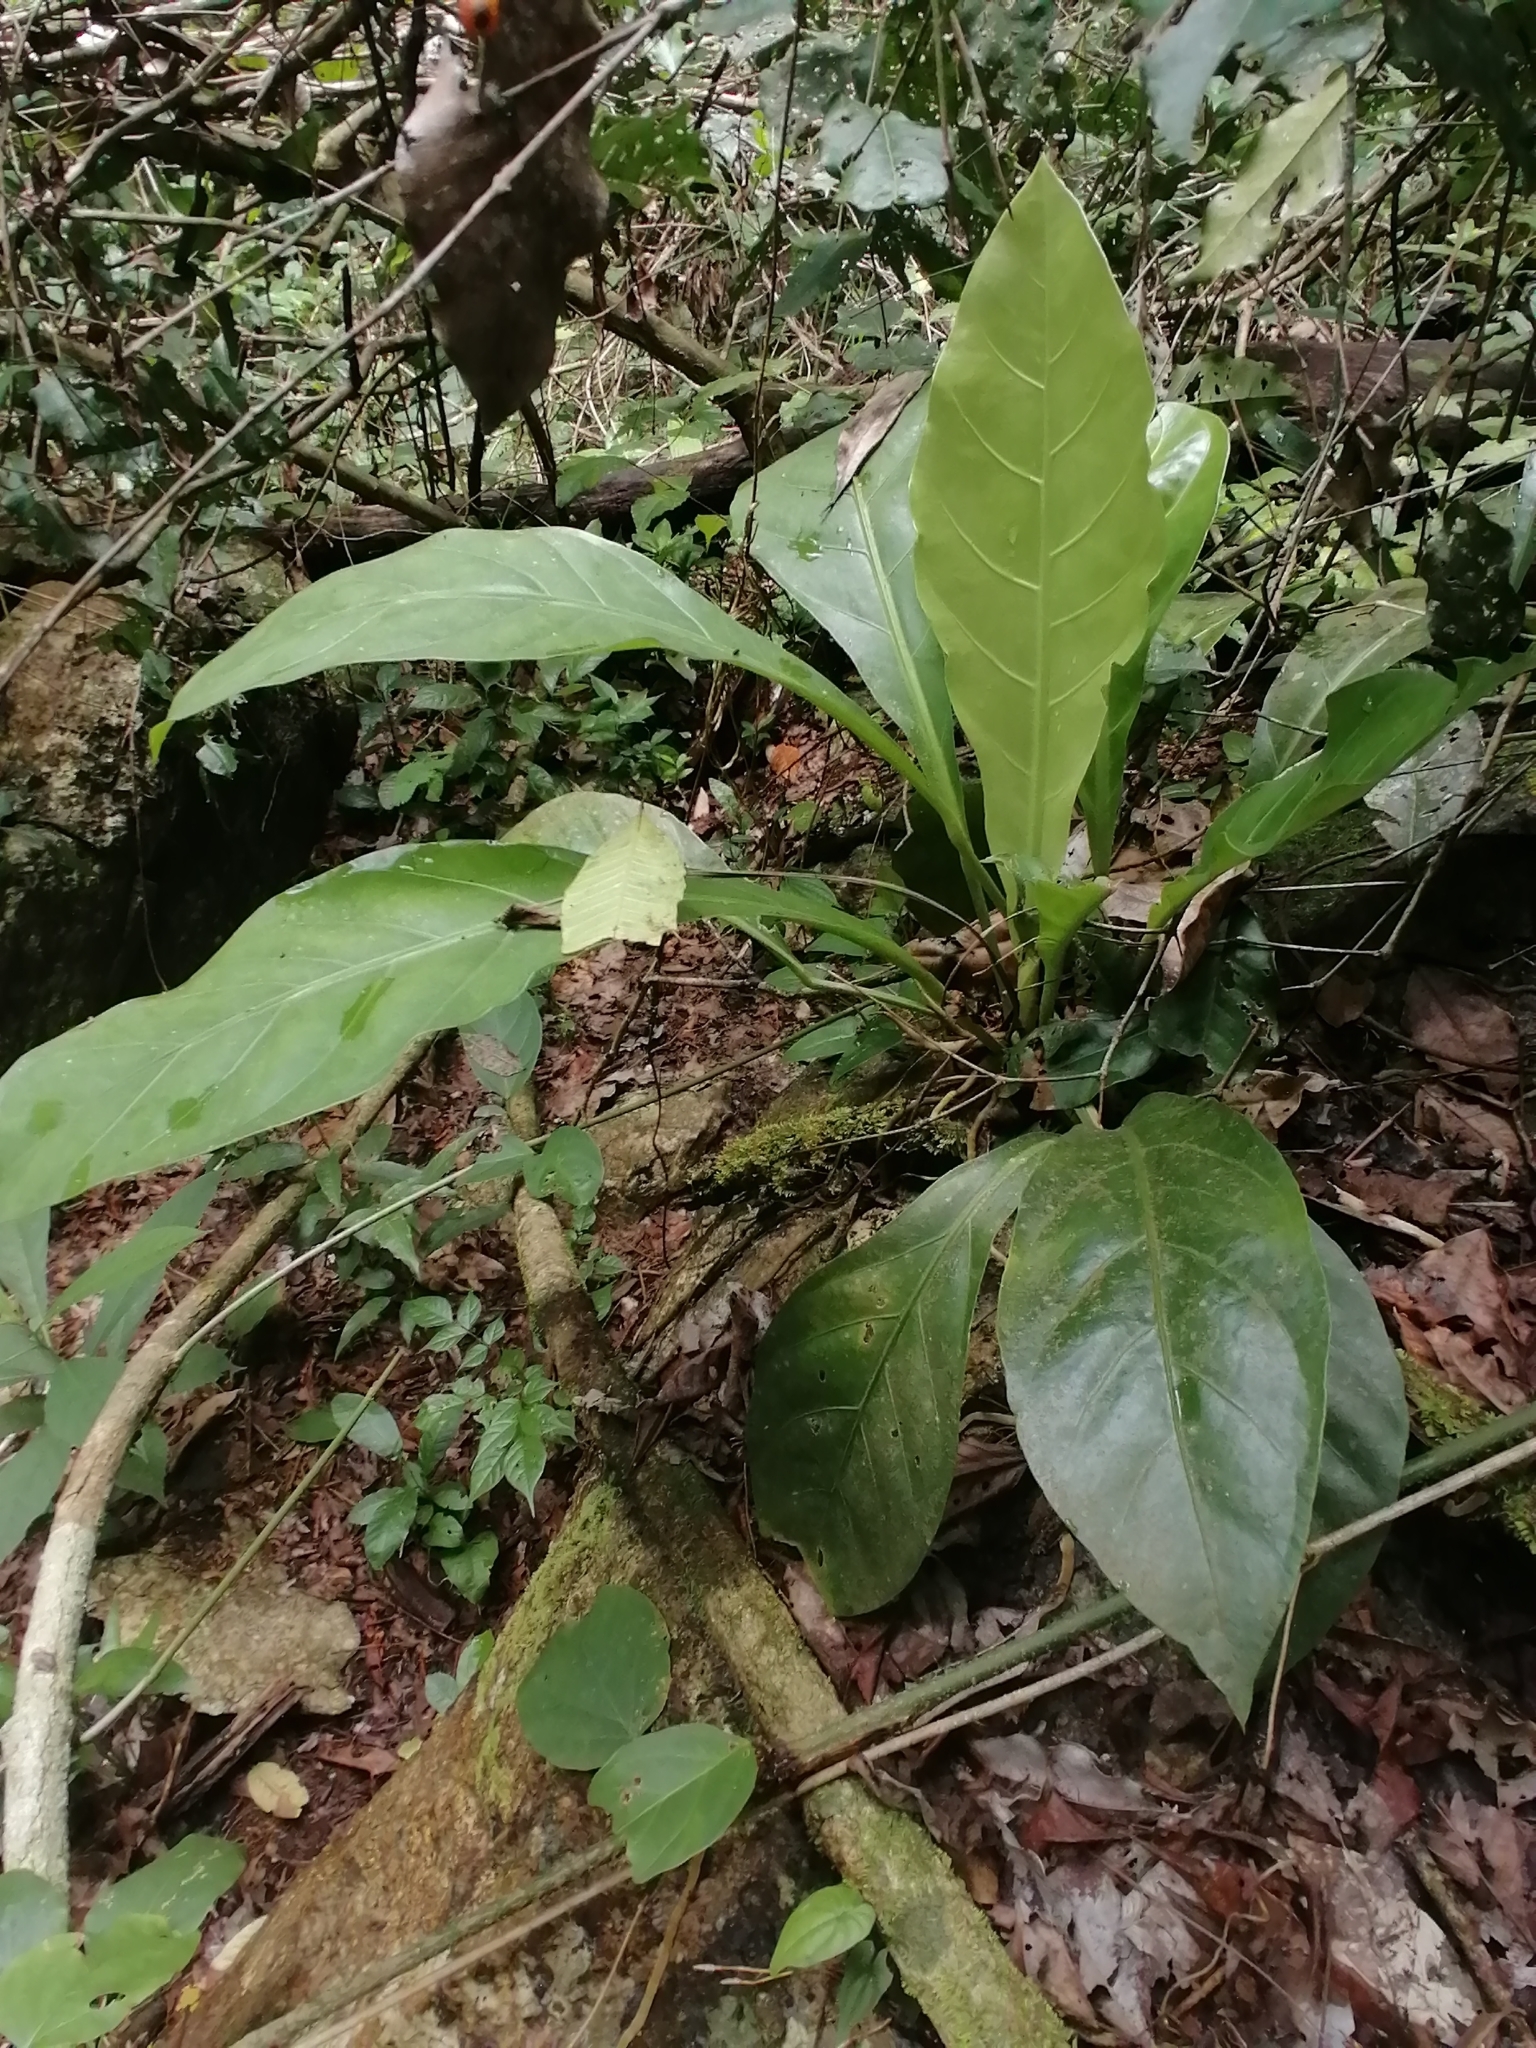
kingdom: Plantae
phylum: Tracheophyta
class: Liliopsida
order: Alismatales
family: Araceae
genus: Anthurium
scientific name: Anthurium schlechtendalii
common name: Laceleaf
